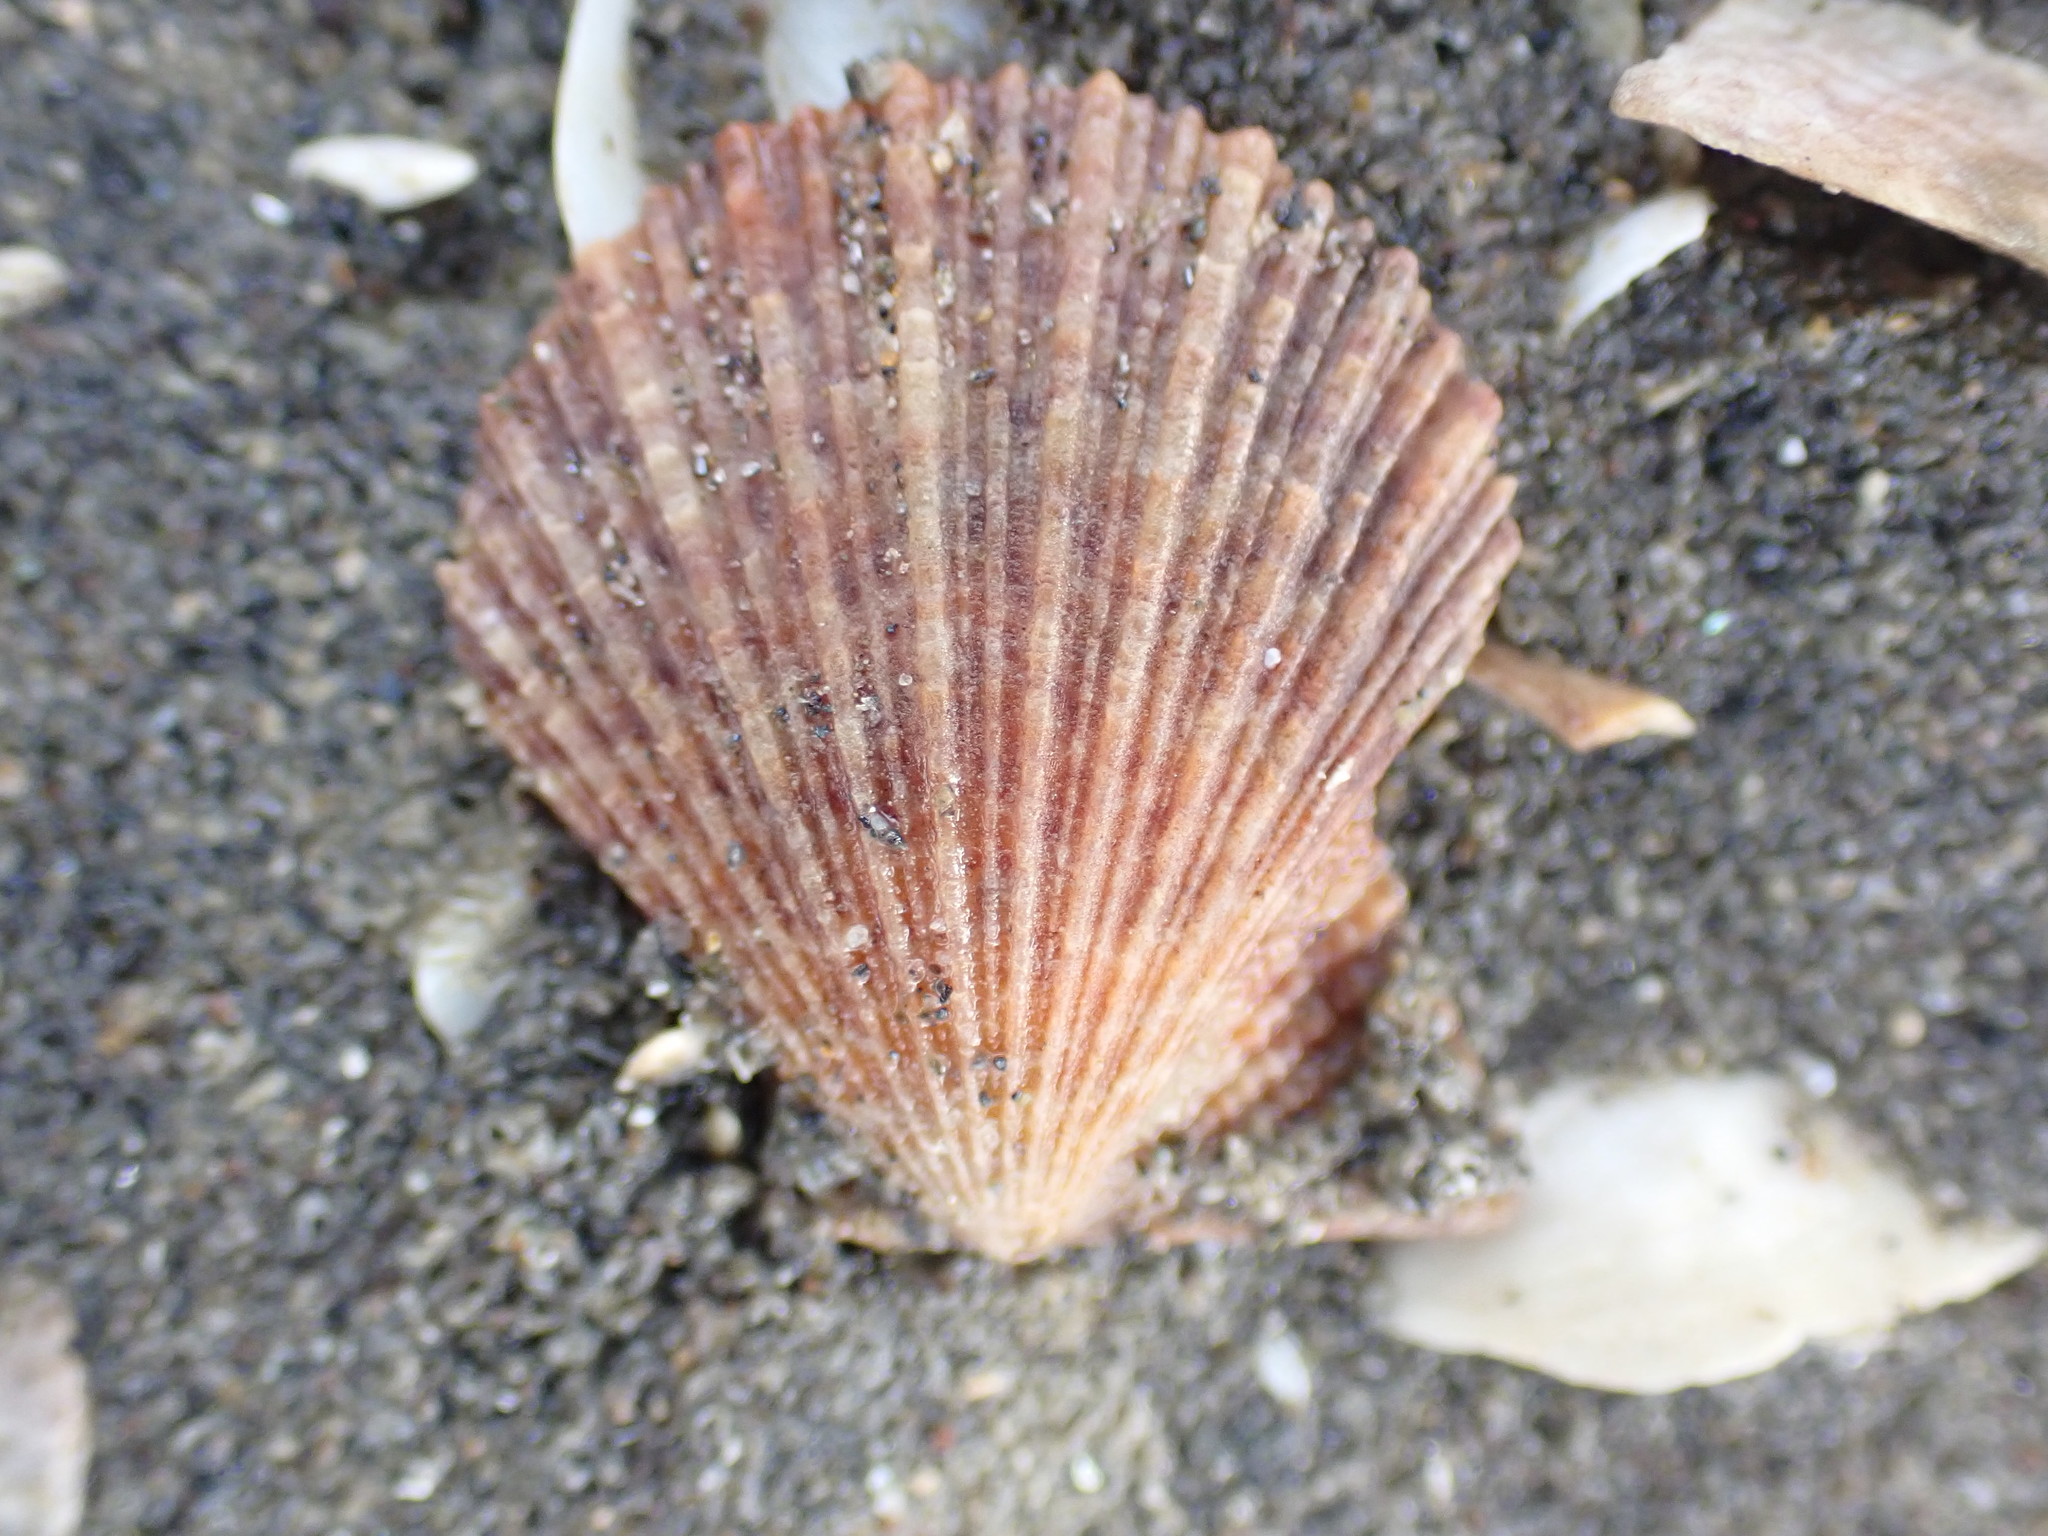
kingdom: Animalia
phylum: Mollusca
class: Bivalvia
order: Pectinida
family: Pectinidae
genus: Talochlamys
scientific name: Talochlamys zelandiae
